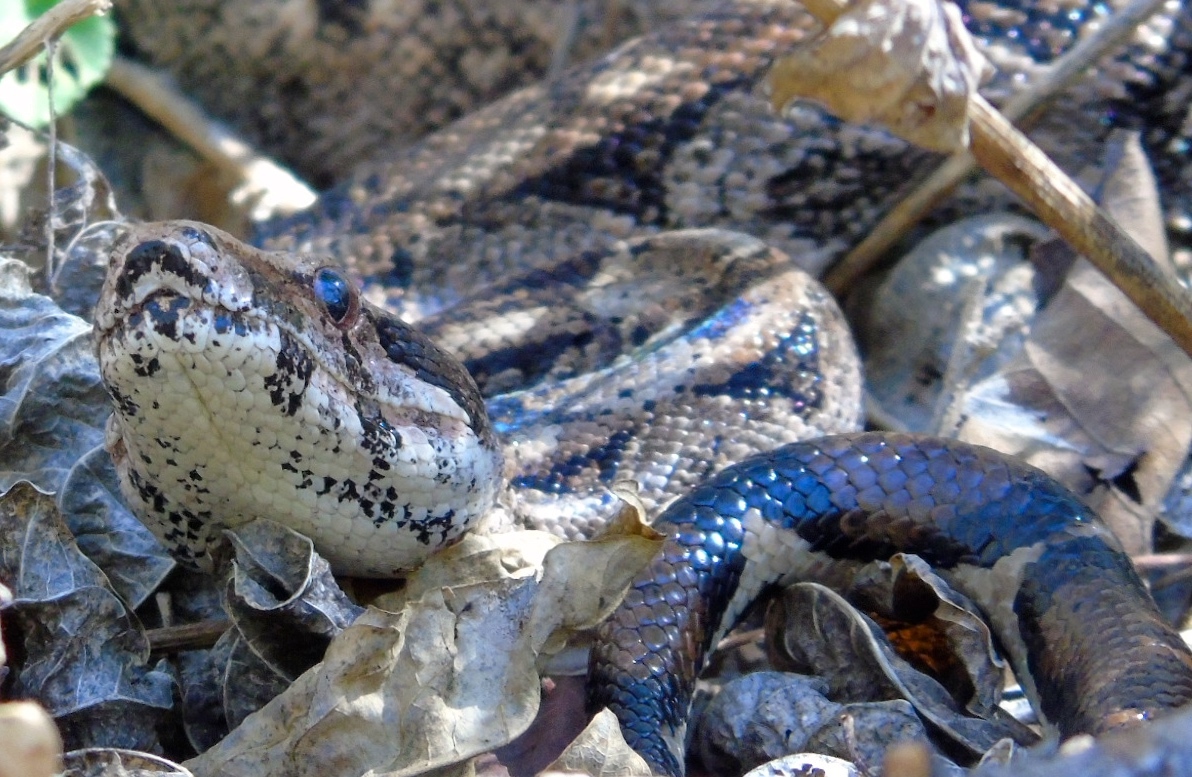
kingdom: Animalia
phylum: Chordata
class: Squamata
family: Boidae
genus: Boa
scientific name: Boa
